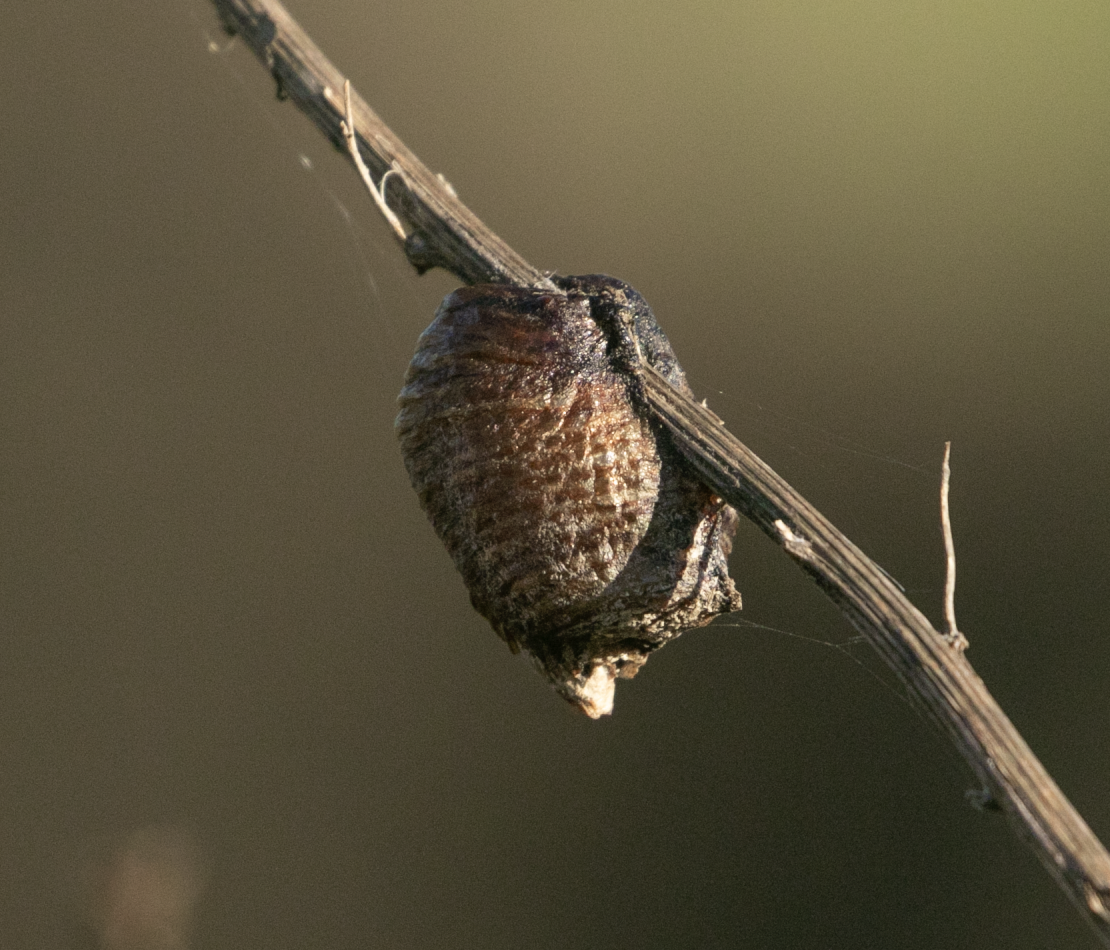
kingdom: Animalia
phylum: Arthropoda
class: Insecta
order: Mantodea
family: Mantidae
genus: Hierodula
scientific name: Hierodula transcaucasica
